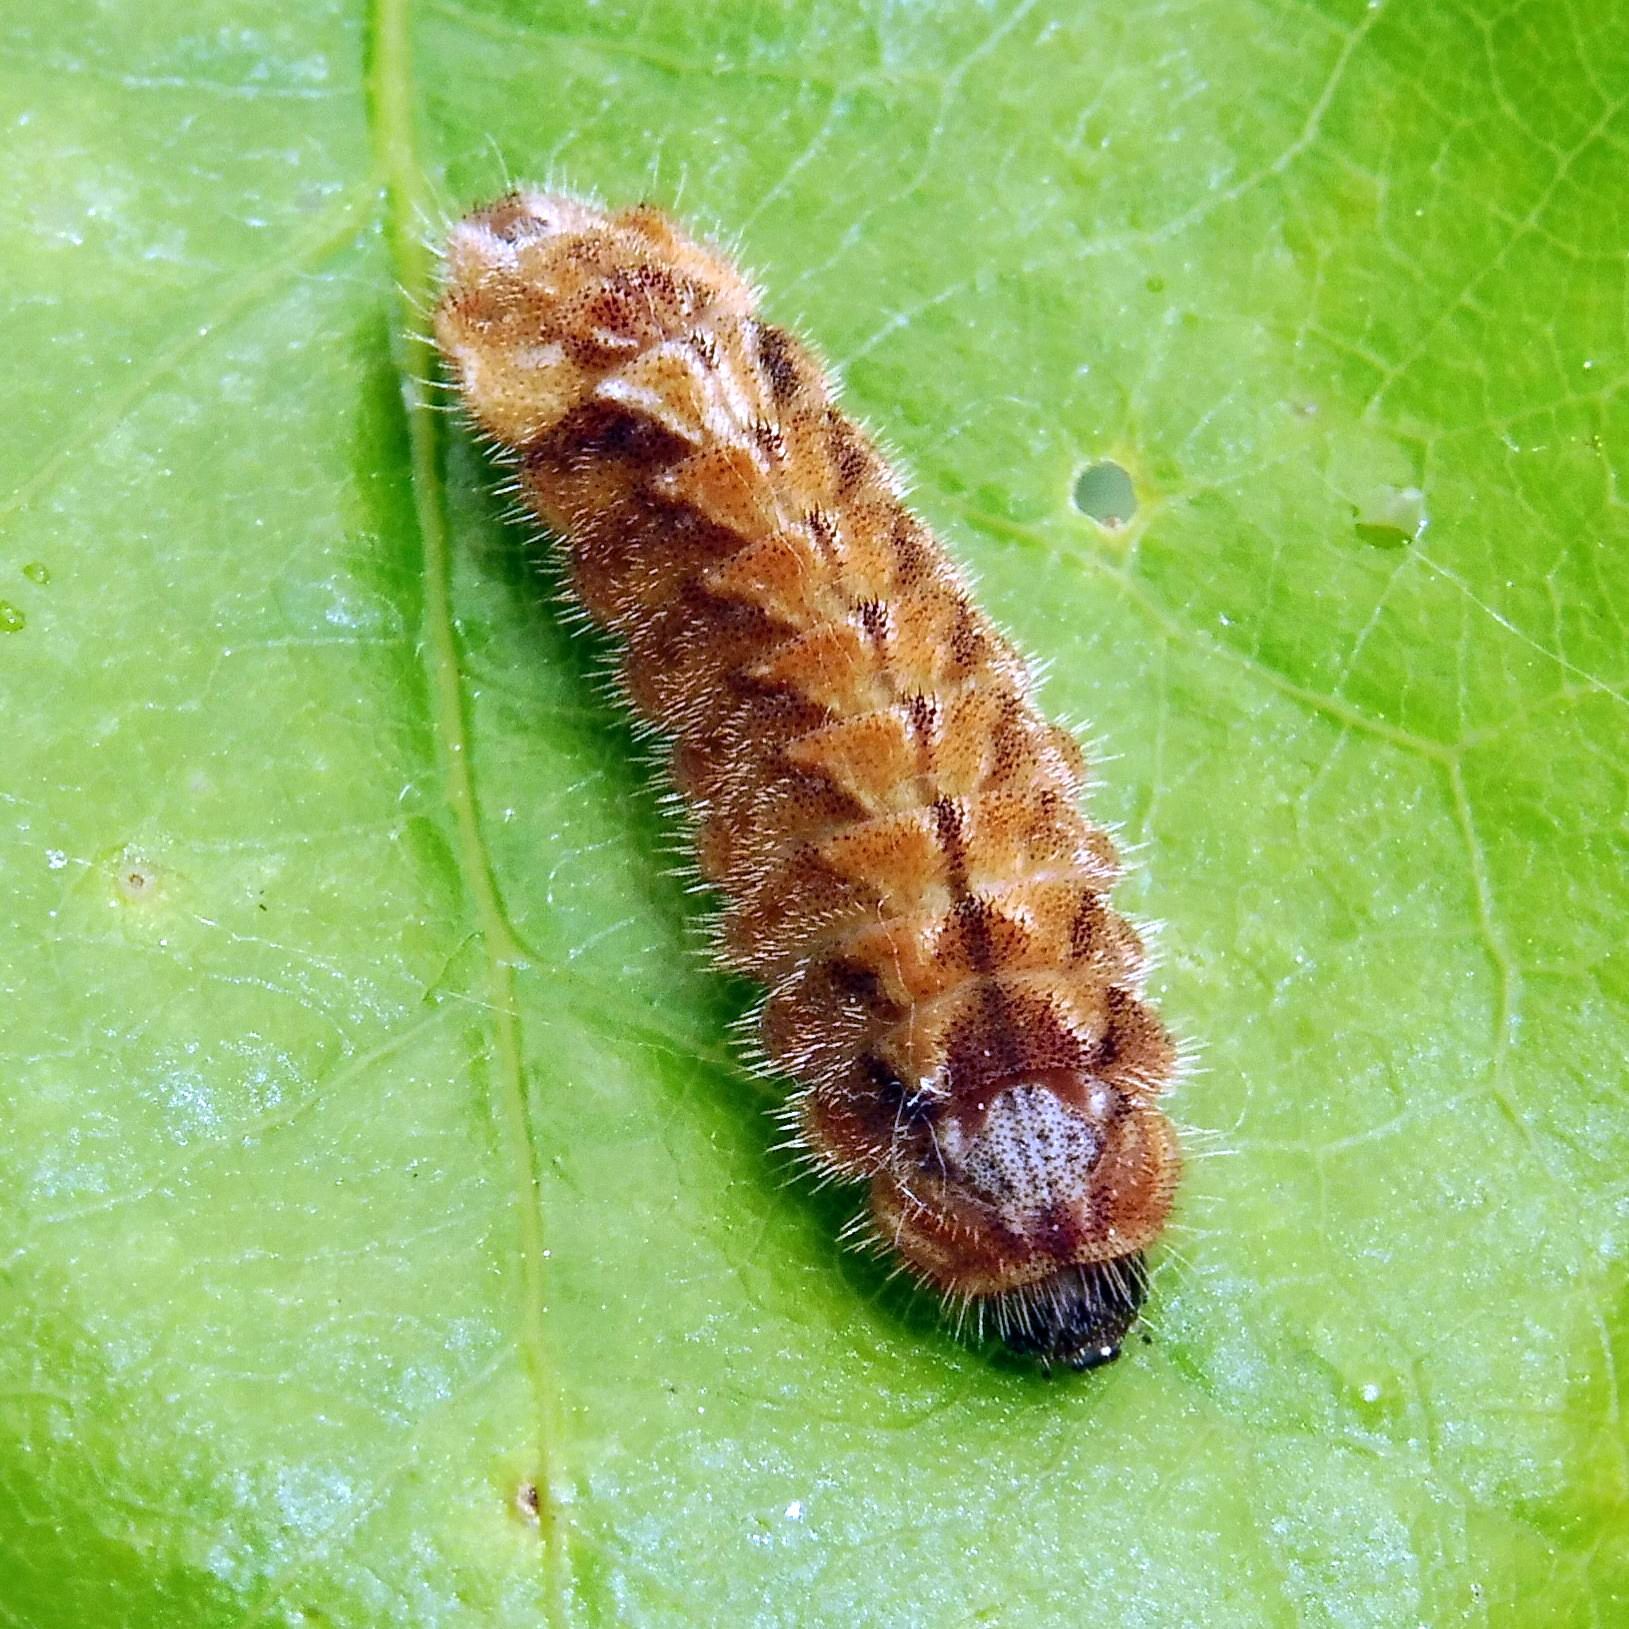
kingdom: Animalia
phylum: Arthropoda
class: Insecta
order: Lepidoptera
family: Lycaenidae
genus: Quercusia
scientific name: Quercusia quercus
